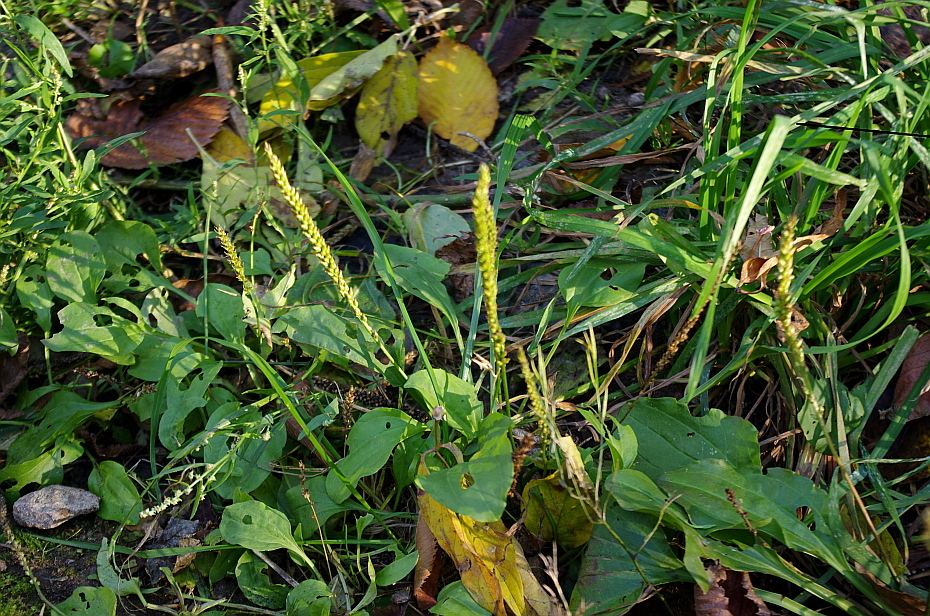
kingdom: Plantae
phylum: Tracheophyta
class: Magnoliopsida
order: Lamiales
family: Plantaginaceae
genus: Plantago
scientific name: Plantago major
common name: Common plantain
